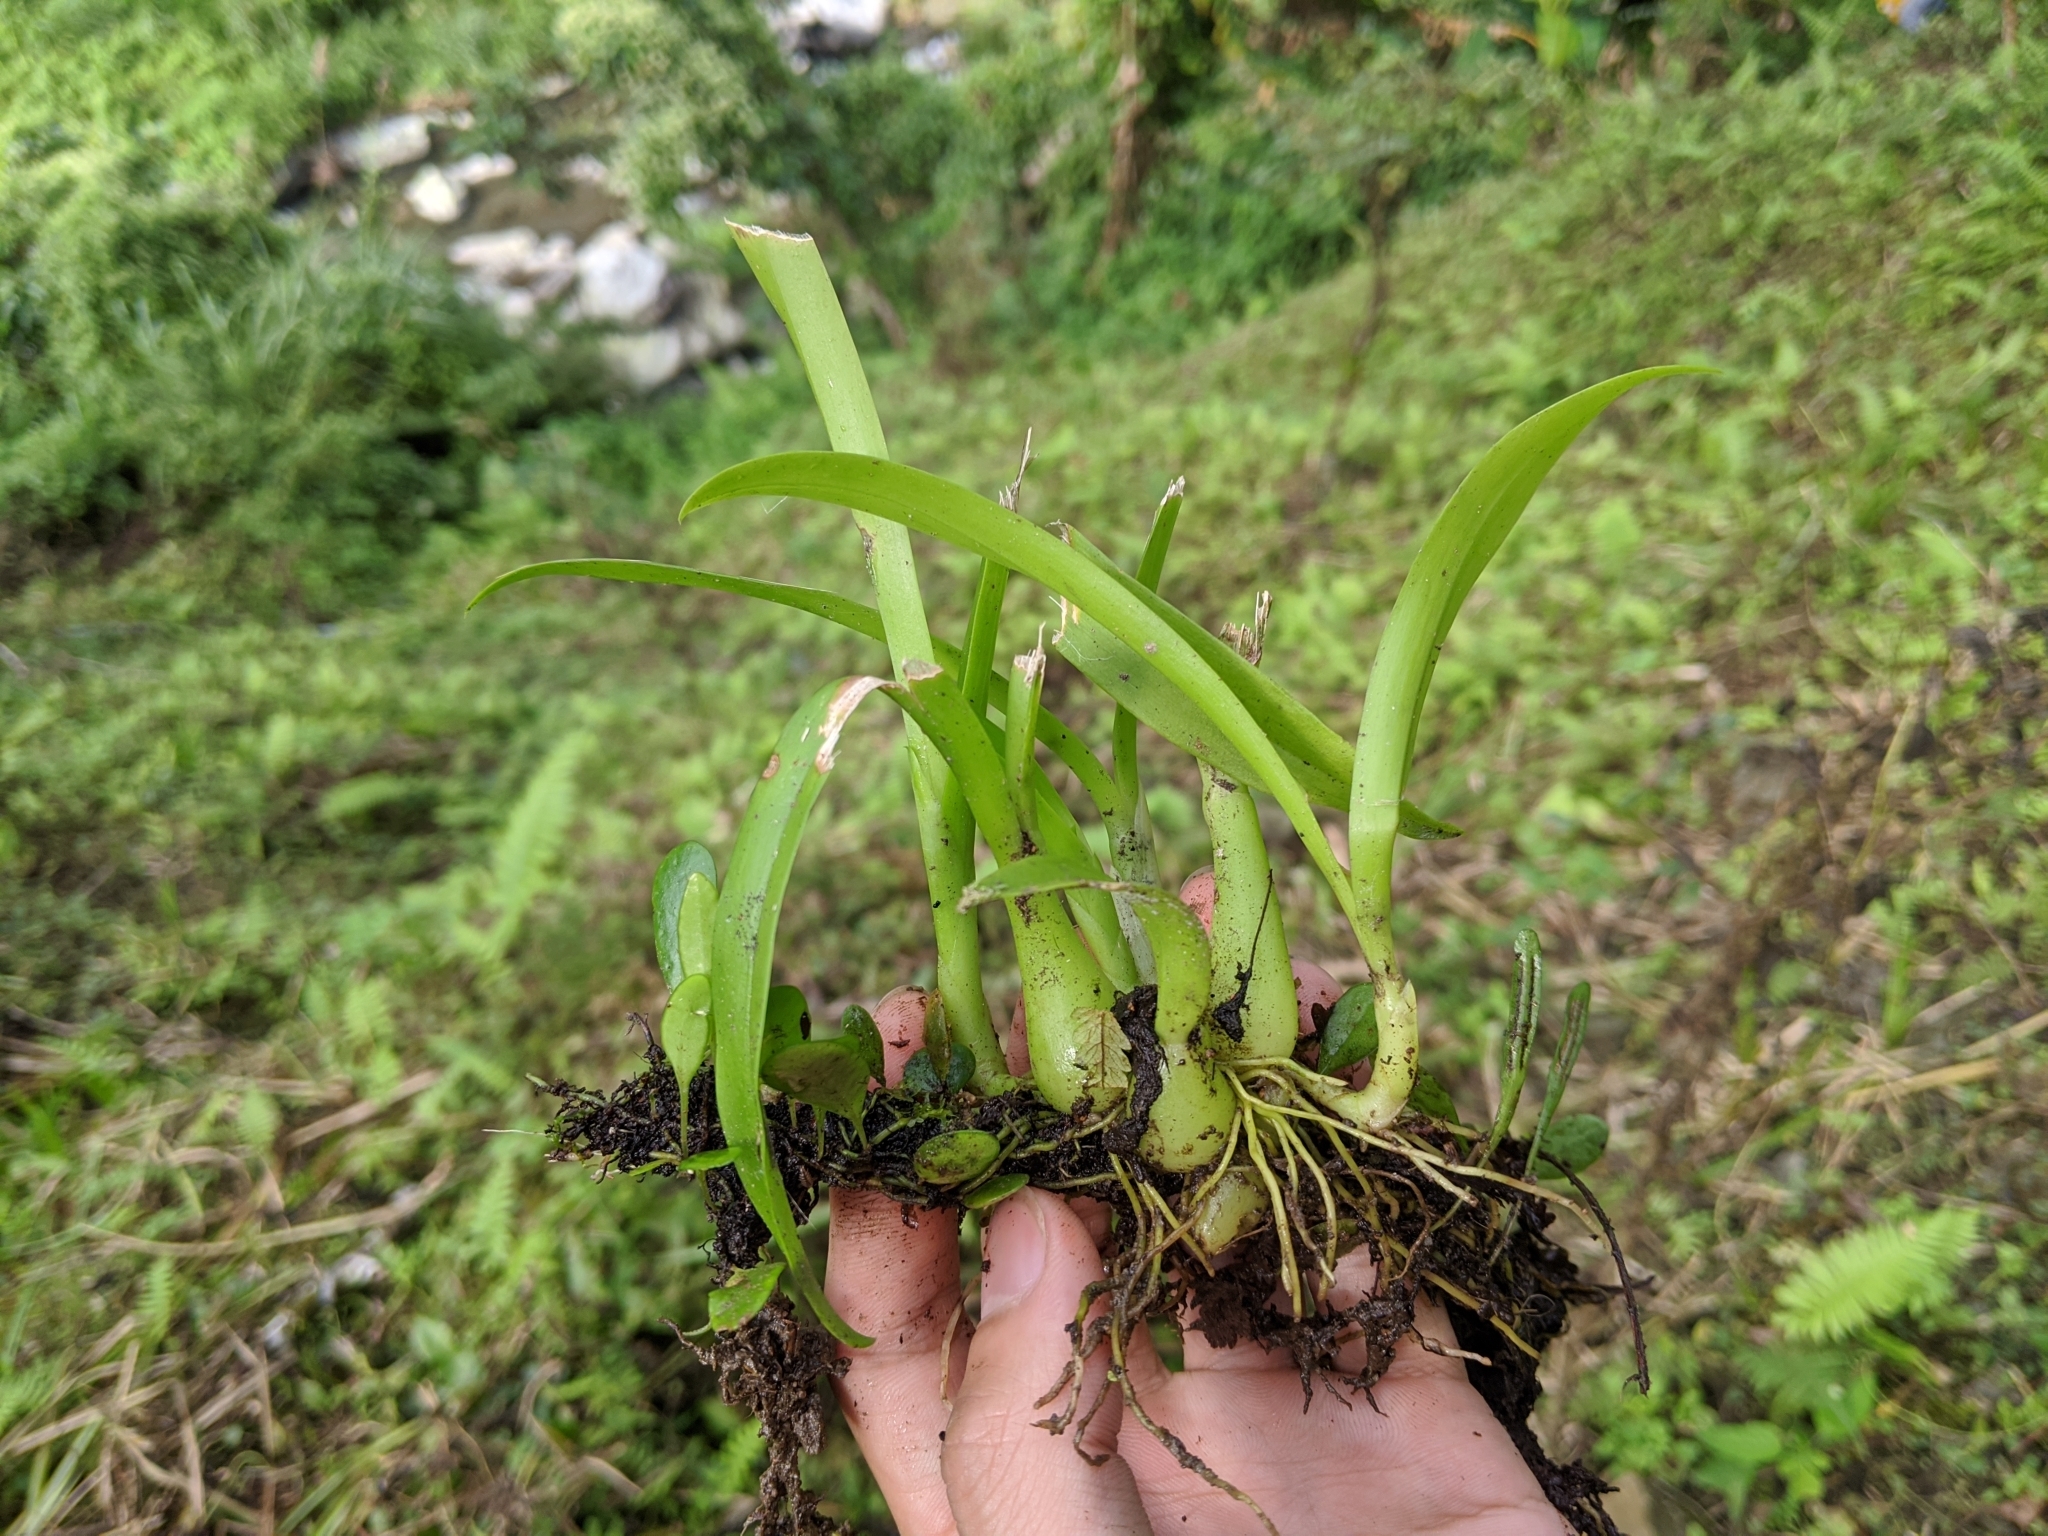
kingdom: Plantae
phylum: Tracheophyta
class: Liliopsida
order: Asparagales
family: Orchidaceae
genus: Liparis
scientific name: Liparis condylobulbon
